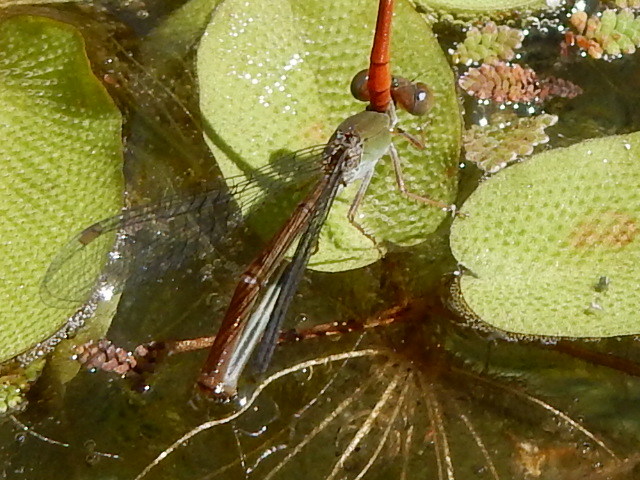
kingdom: Animalia
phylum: Arthropoda
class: Insecta
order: Odonata
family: Coenagrionidae
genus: Ceriagrion
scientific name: Ceriagrion aeruginosum
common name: Redtail
